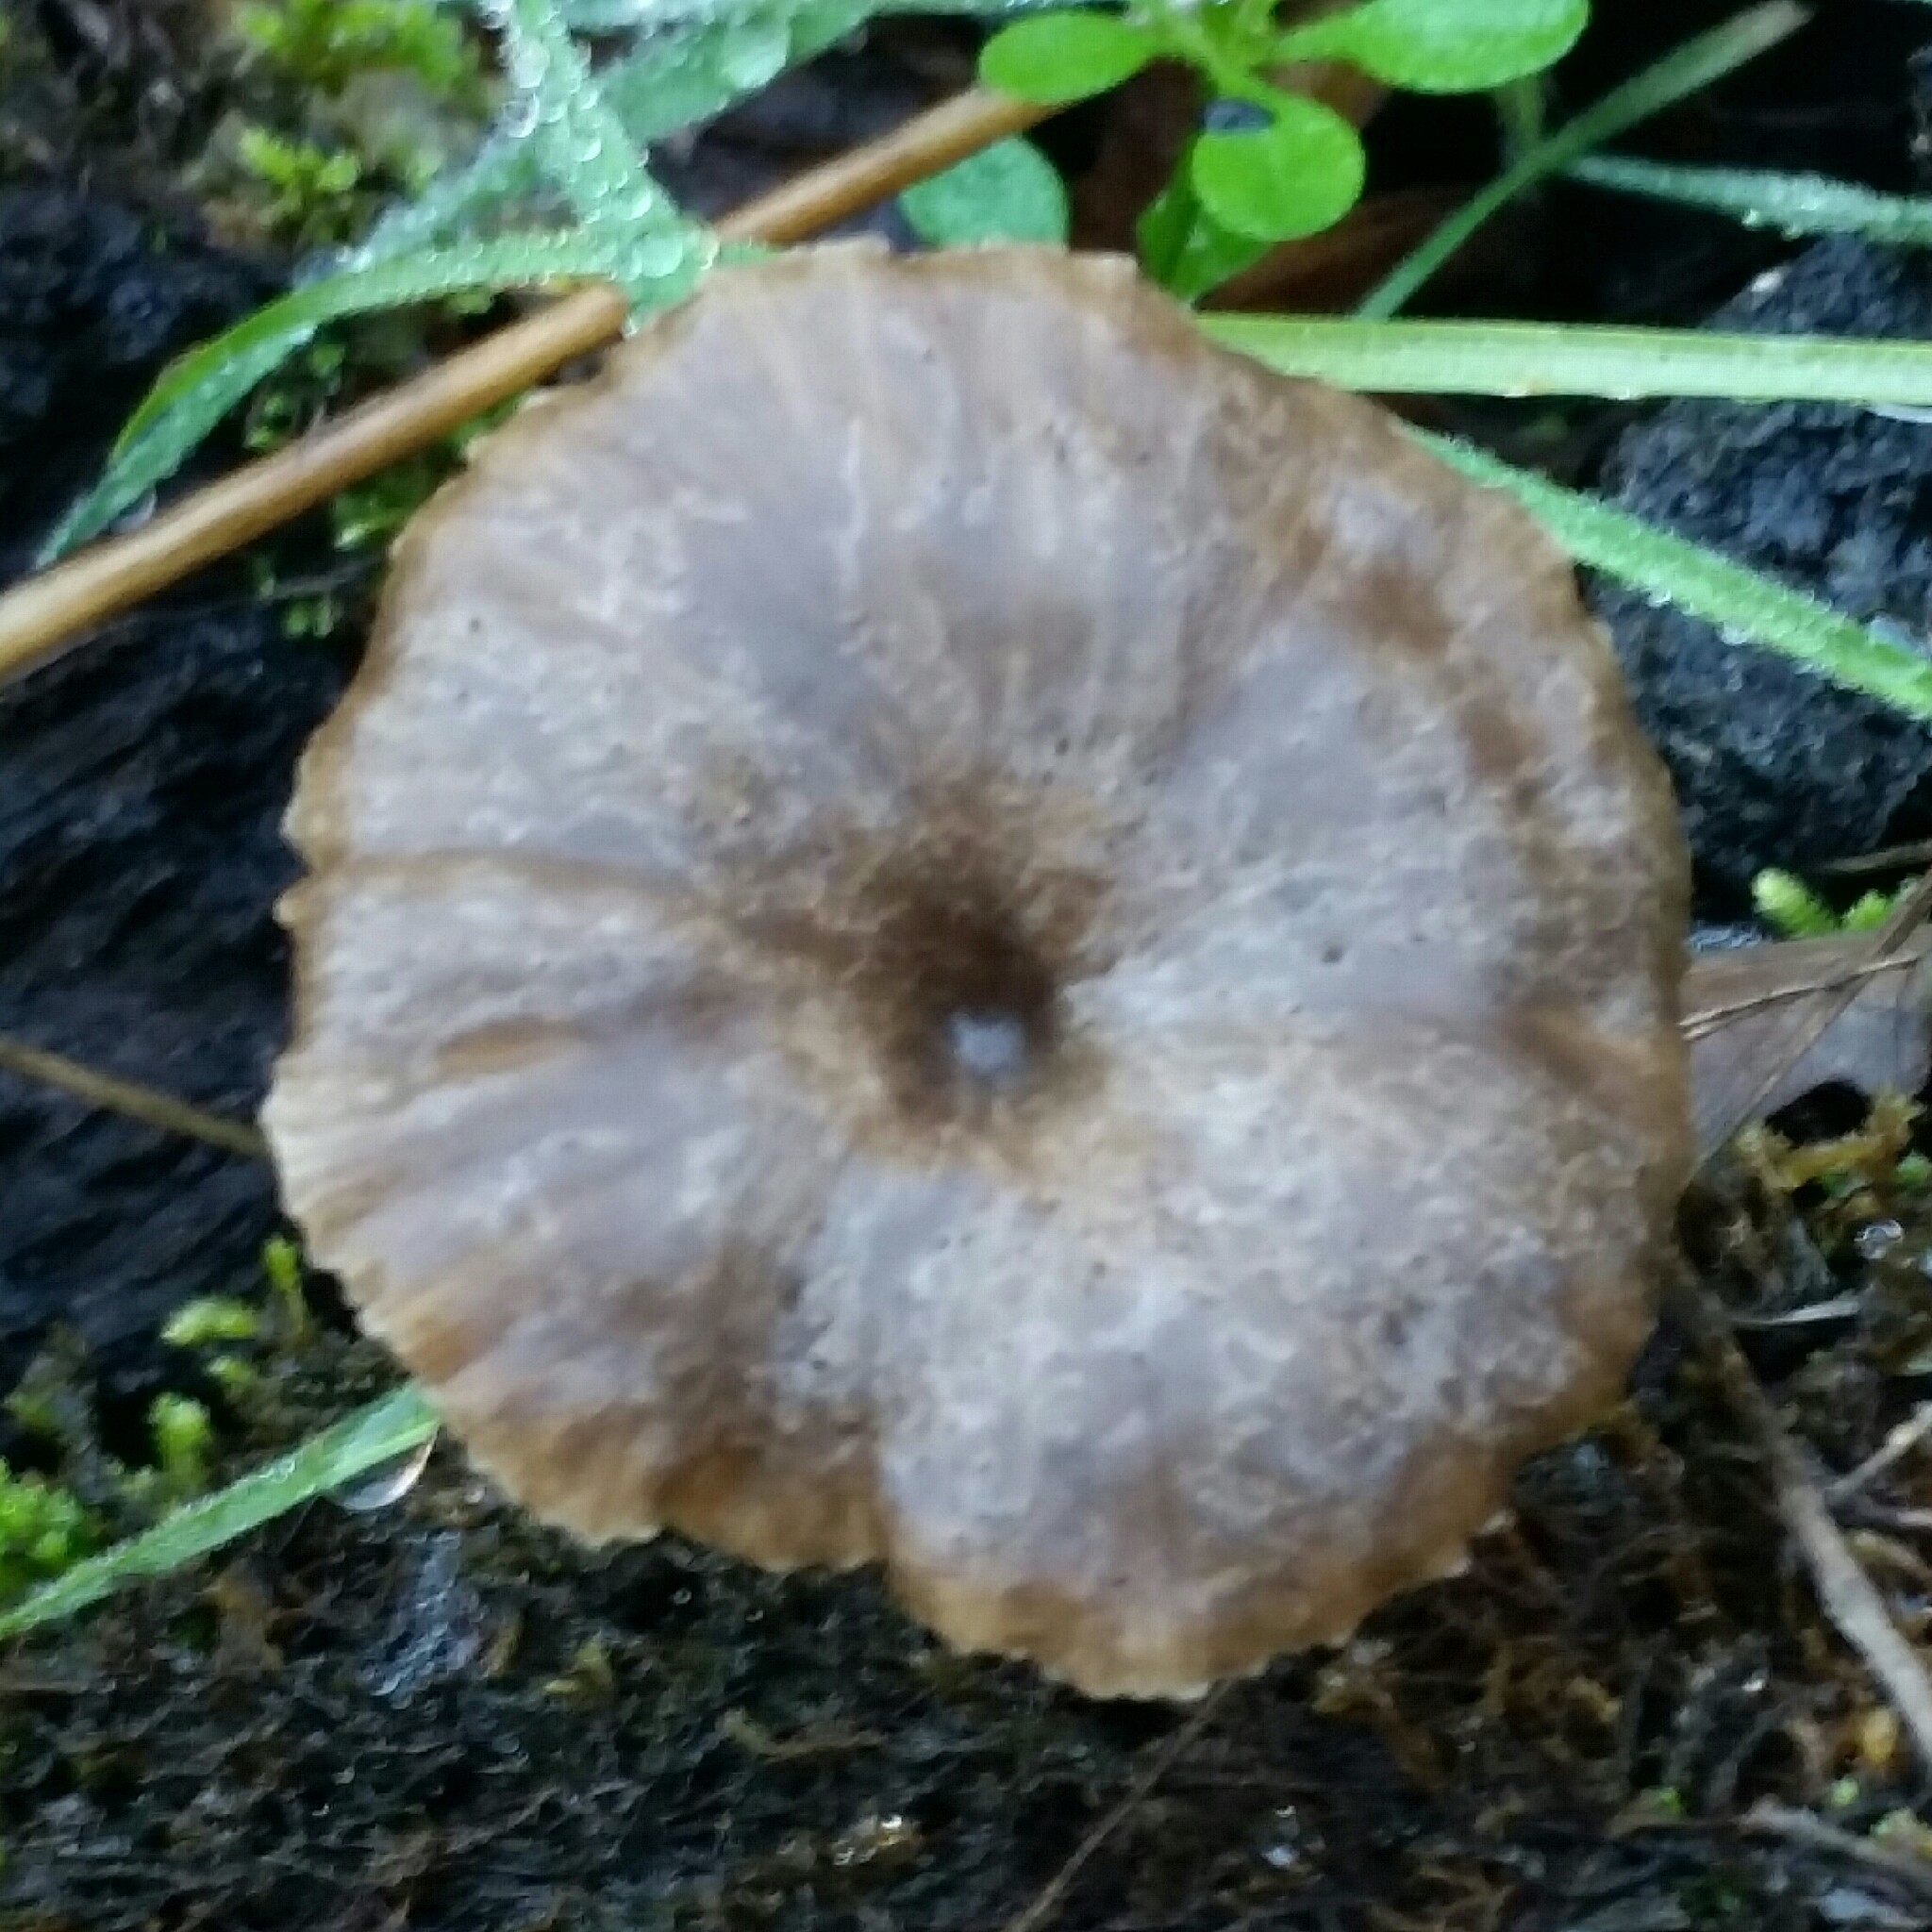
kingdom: Fungi
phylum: Basidiomycota
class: Agaricomycetes
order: Agaricales
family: Pseudoclitocybaceae
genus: Pseudoclitocybe
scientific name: Pseudoclitocybe cyathiformis
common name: Goblet
